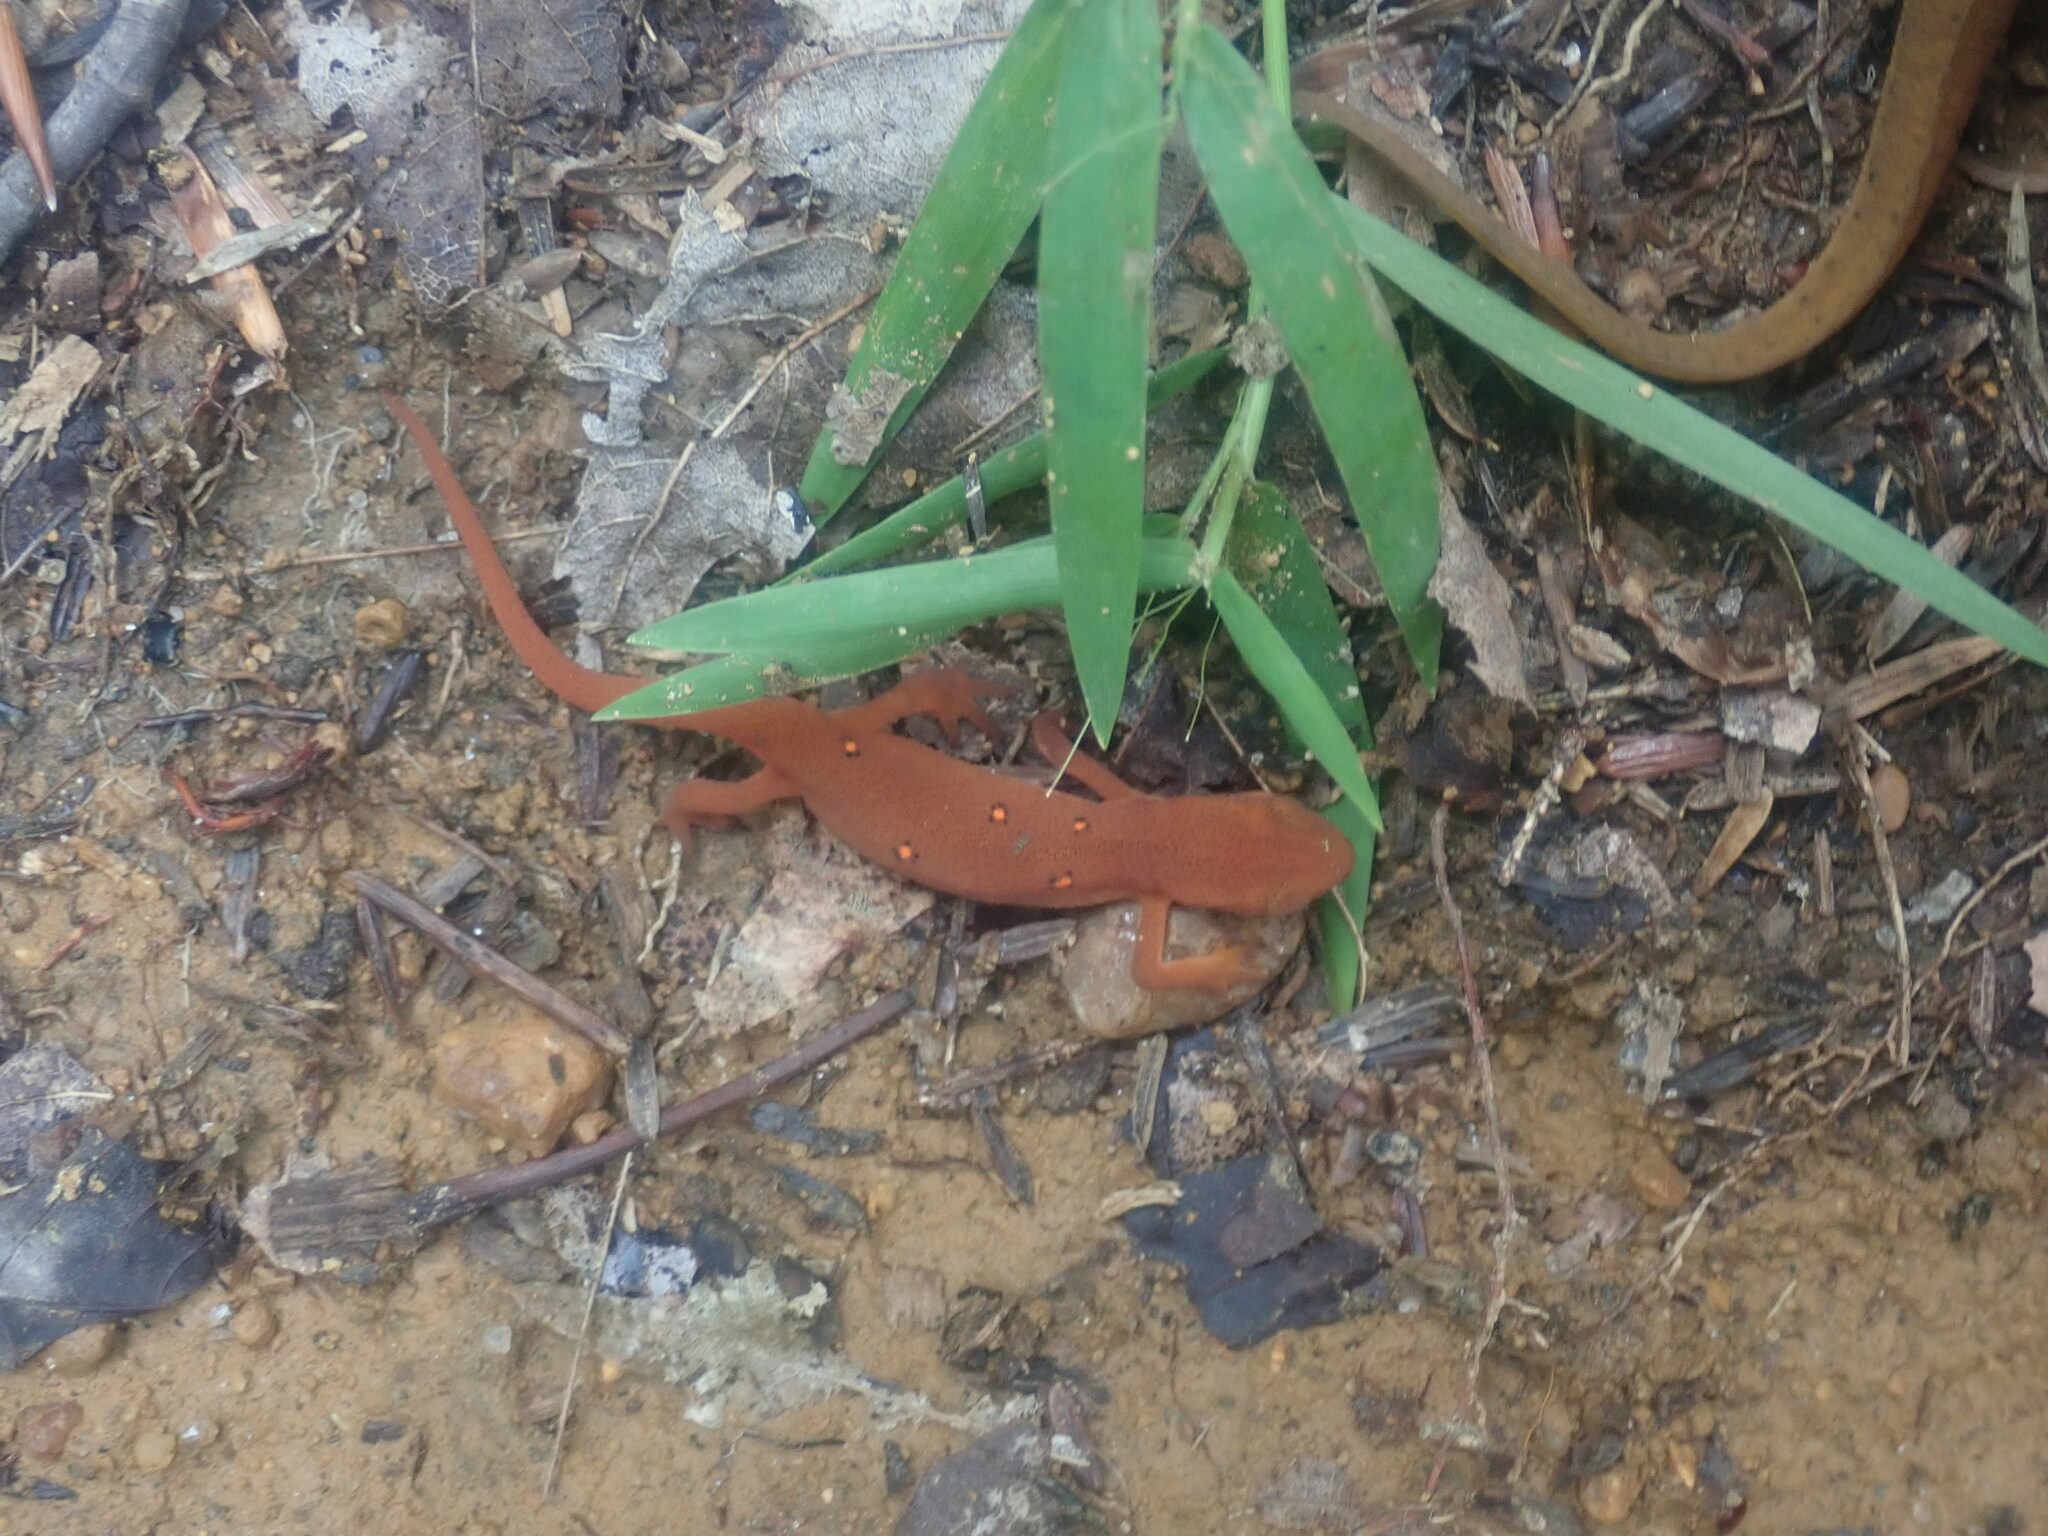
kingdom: Animalia
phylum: Chordata
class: Amphibia
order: Caudata
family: Salamandridae
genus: Notophthalmus
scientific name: Notophthalmus viridescens
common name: Eastern newt
